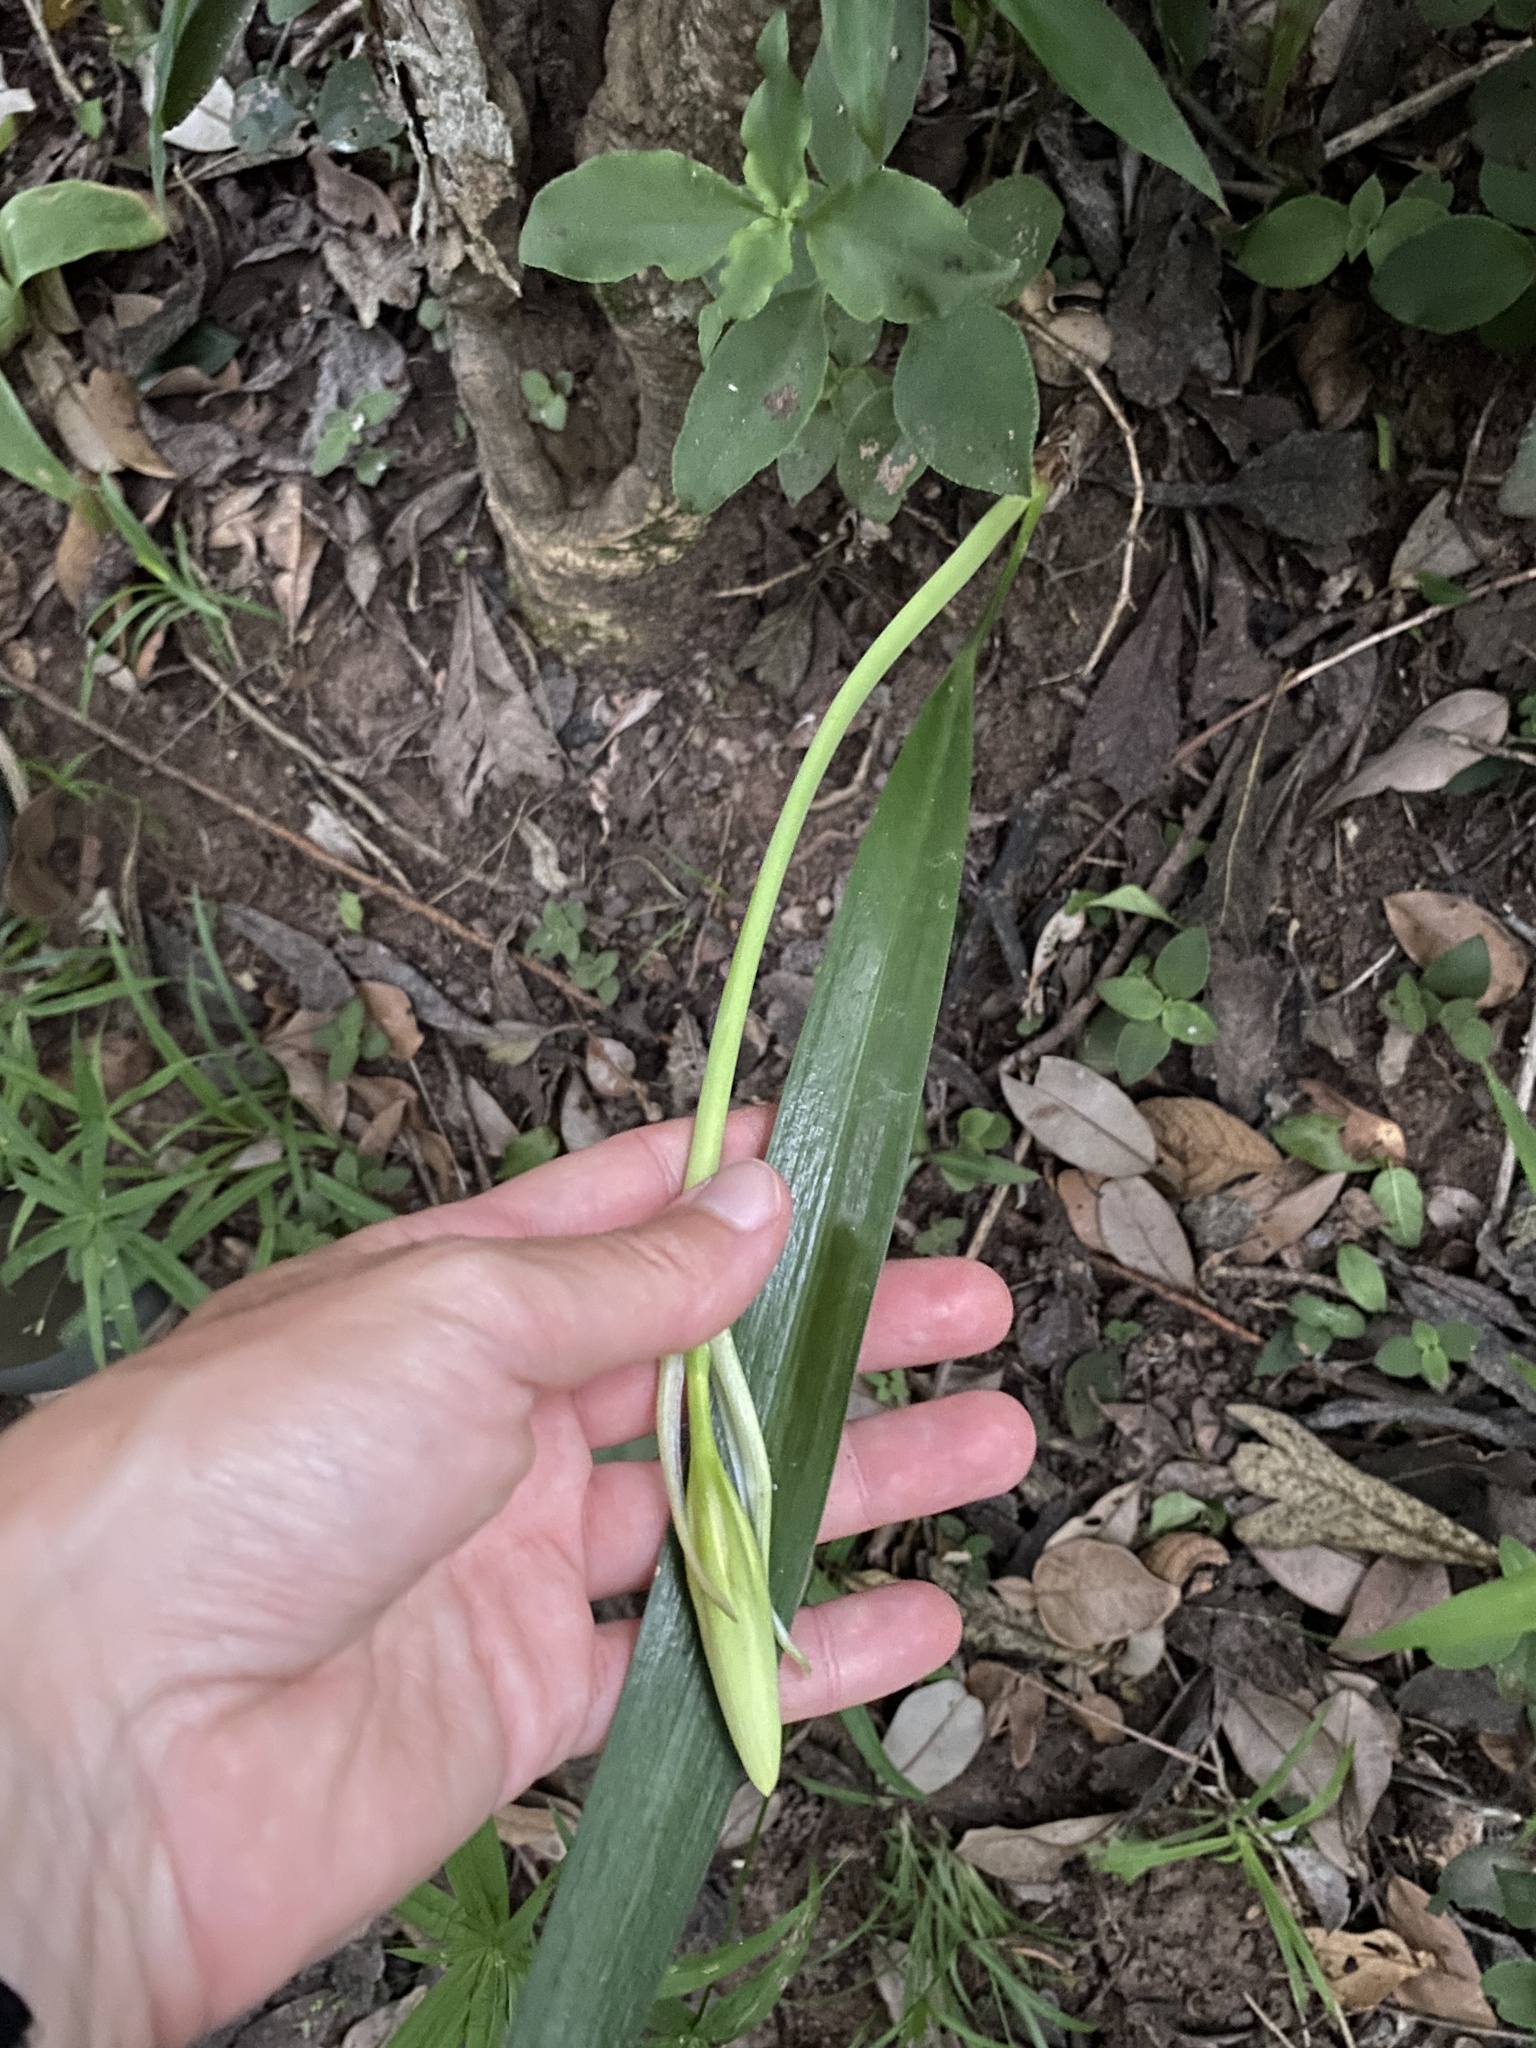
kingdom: Plantae
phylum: Tracheophyta
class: Liliopsida
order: Asparagales
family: Amaryllidaceae
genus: Cyrtanthus
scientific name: Cyrtanthus sanguineus
